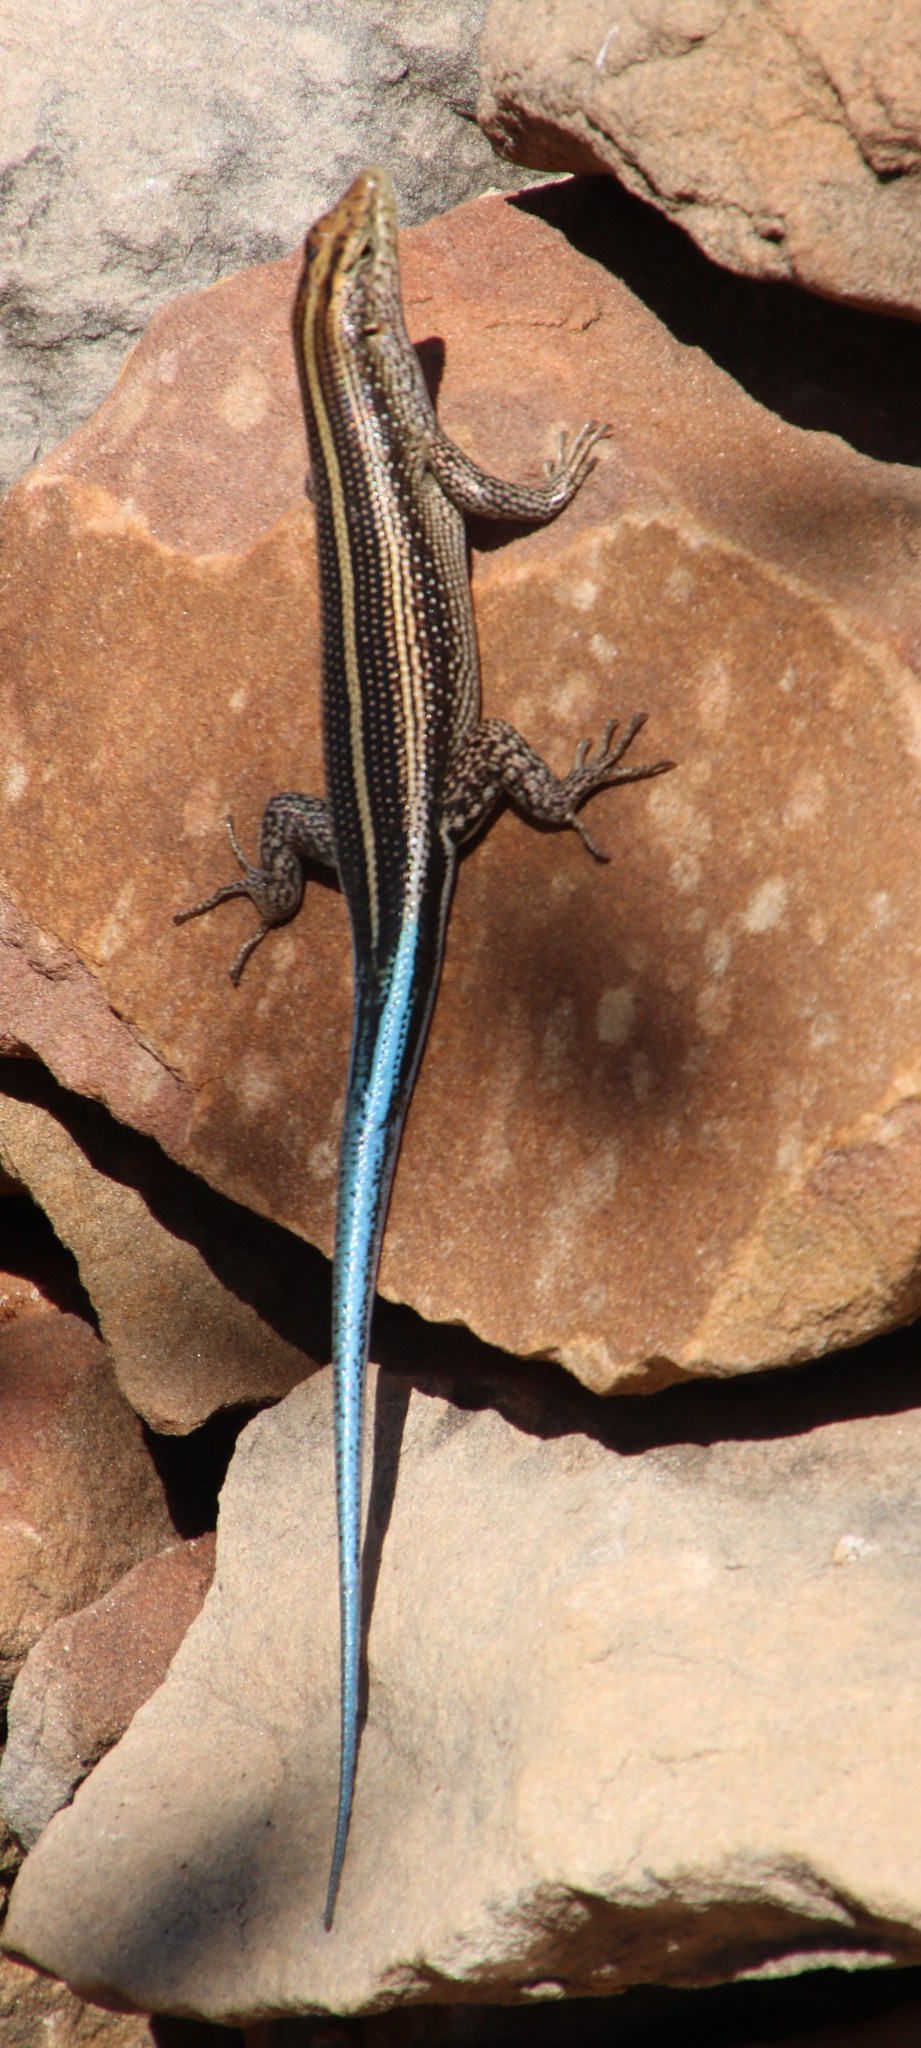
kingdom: Animalia
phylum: Chordata
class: Squamata
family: Scincidae
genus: Trachylepis
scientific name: Trachylepis margaritifera
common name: Rainbow skink
